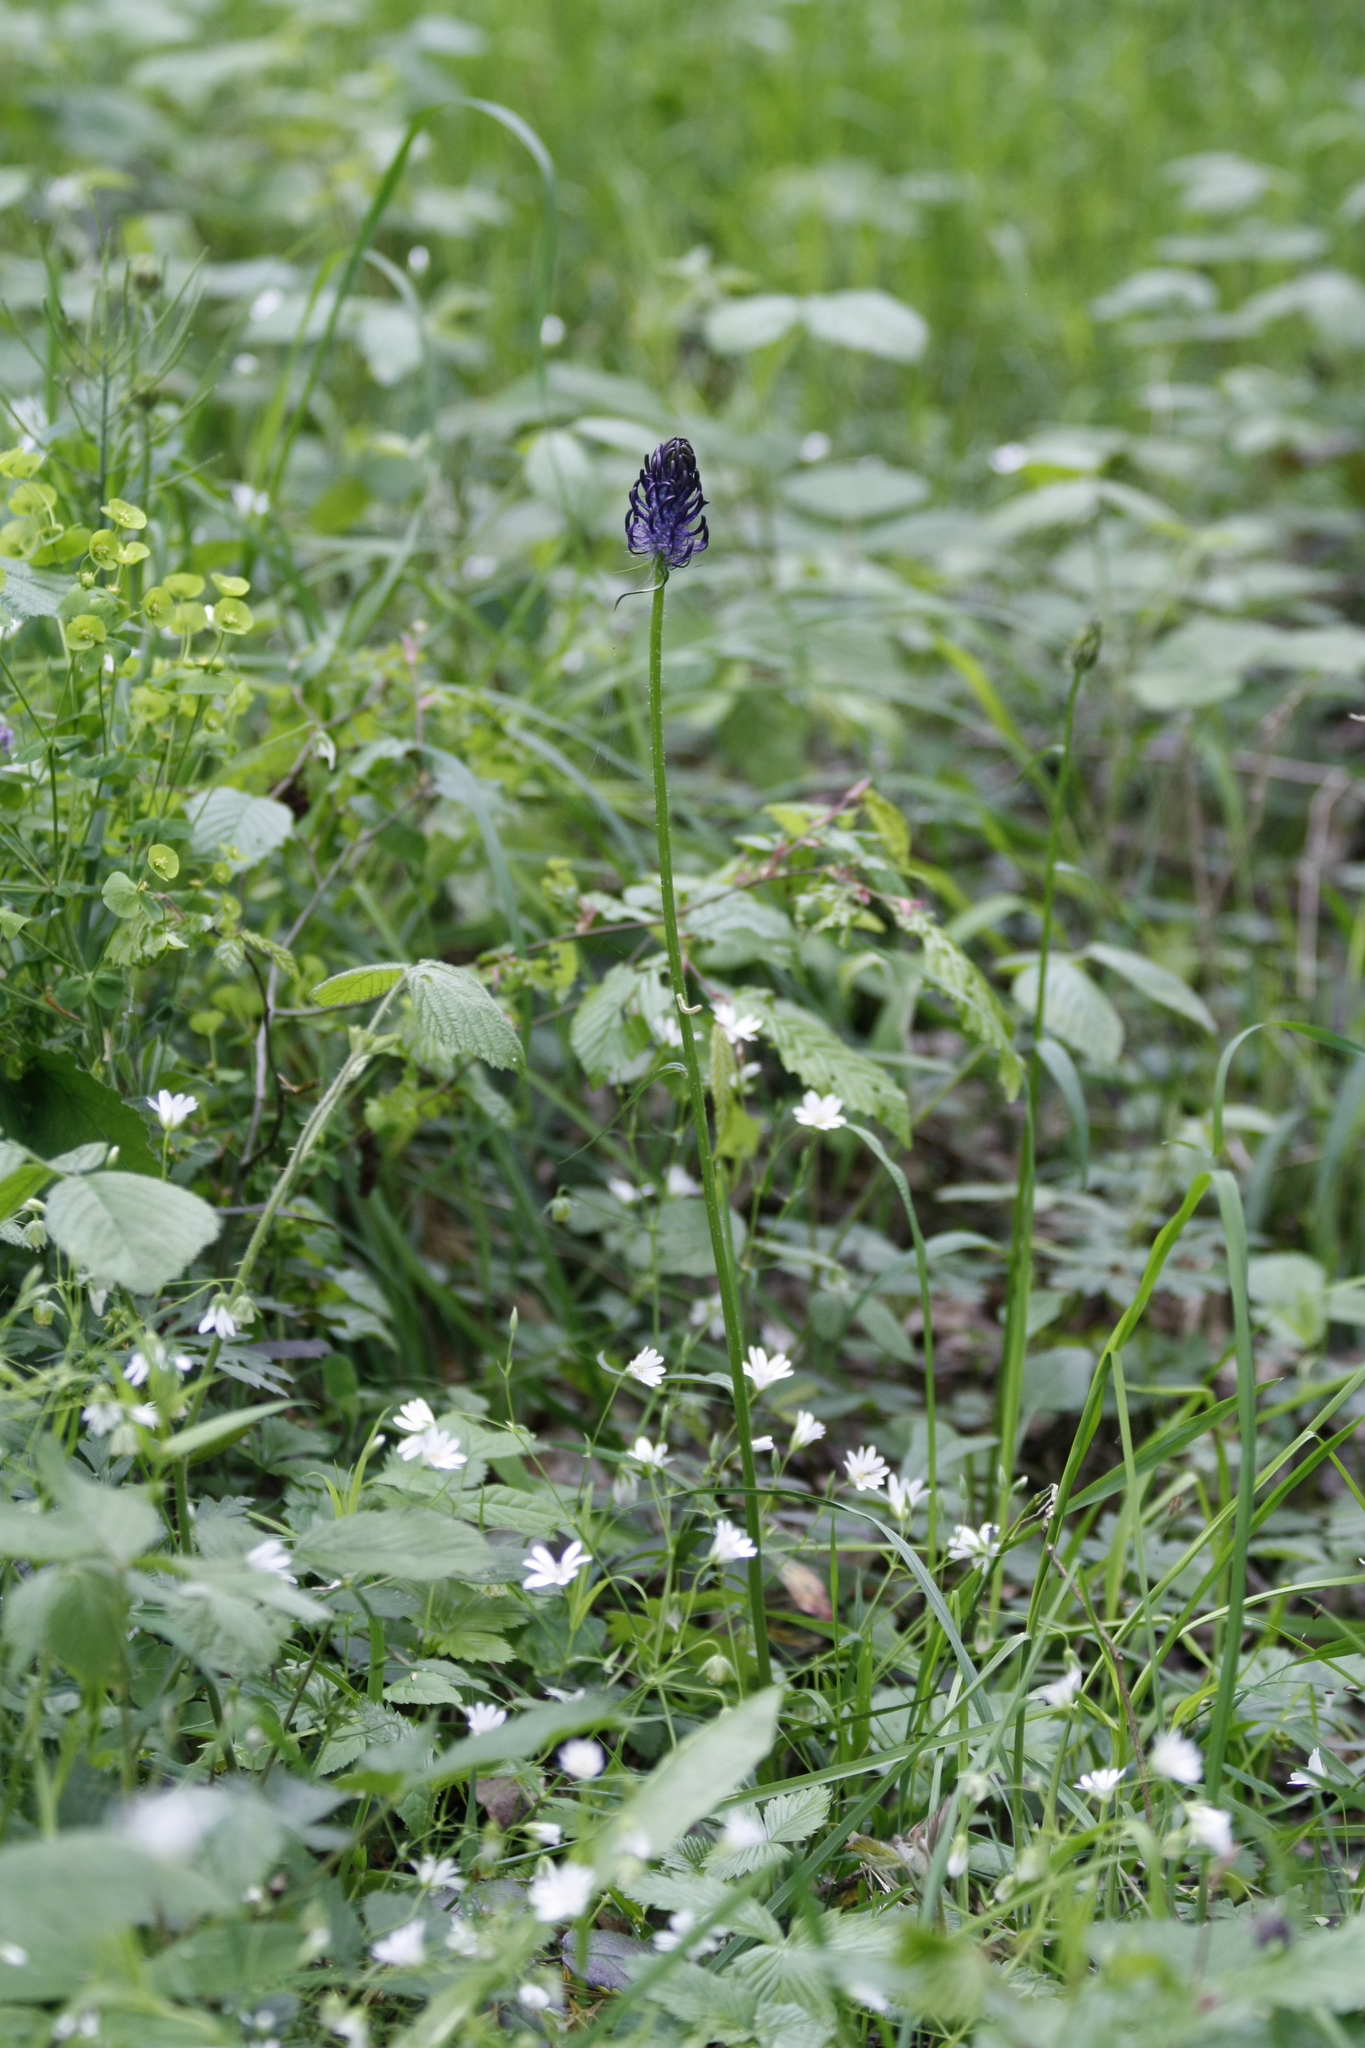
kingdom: Plantae
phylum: Tracheophyta
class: Magnoliopsida
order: Asterales
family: Campanulaceae
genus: Phyteuma
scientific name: Phyteuma nigrum
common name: Black rampion
